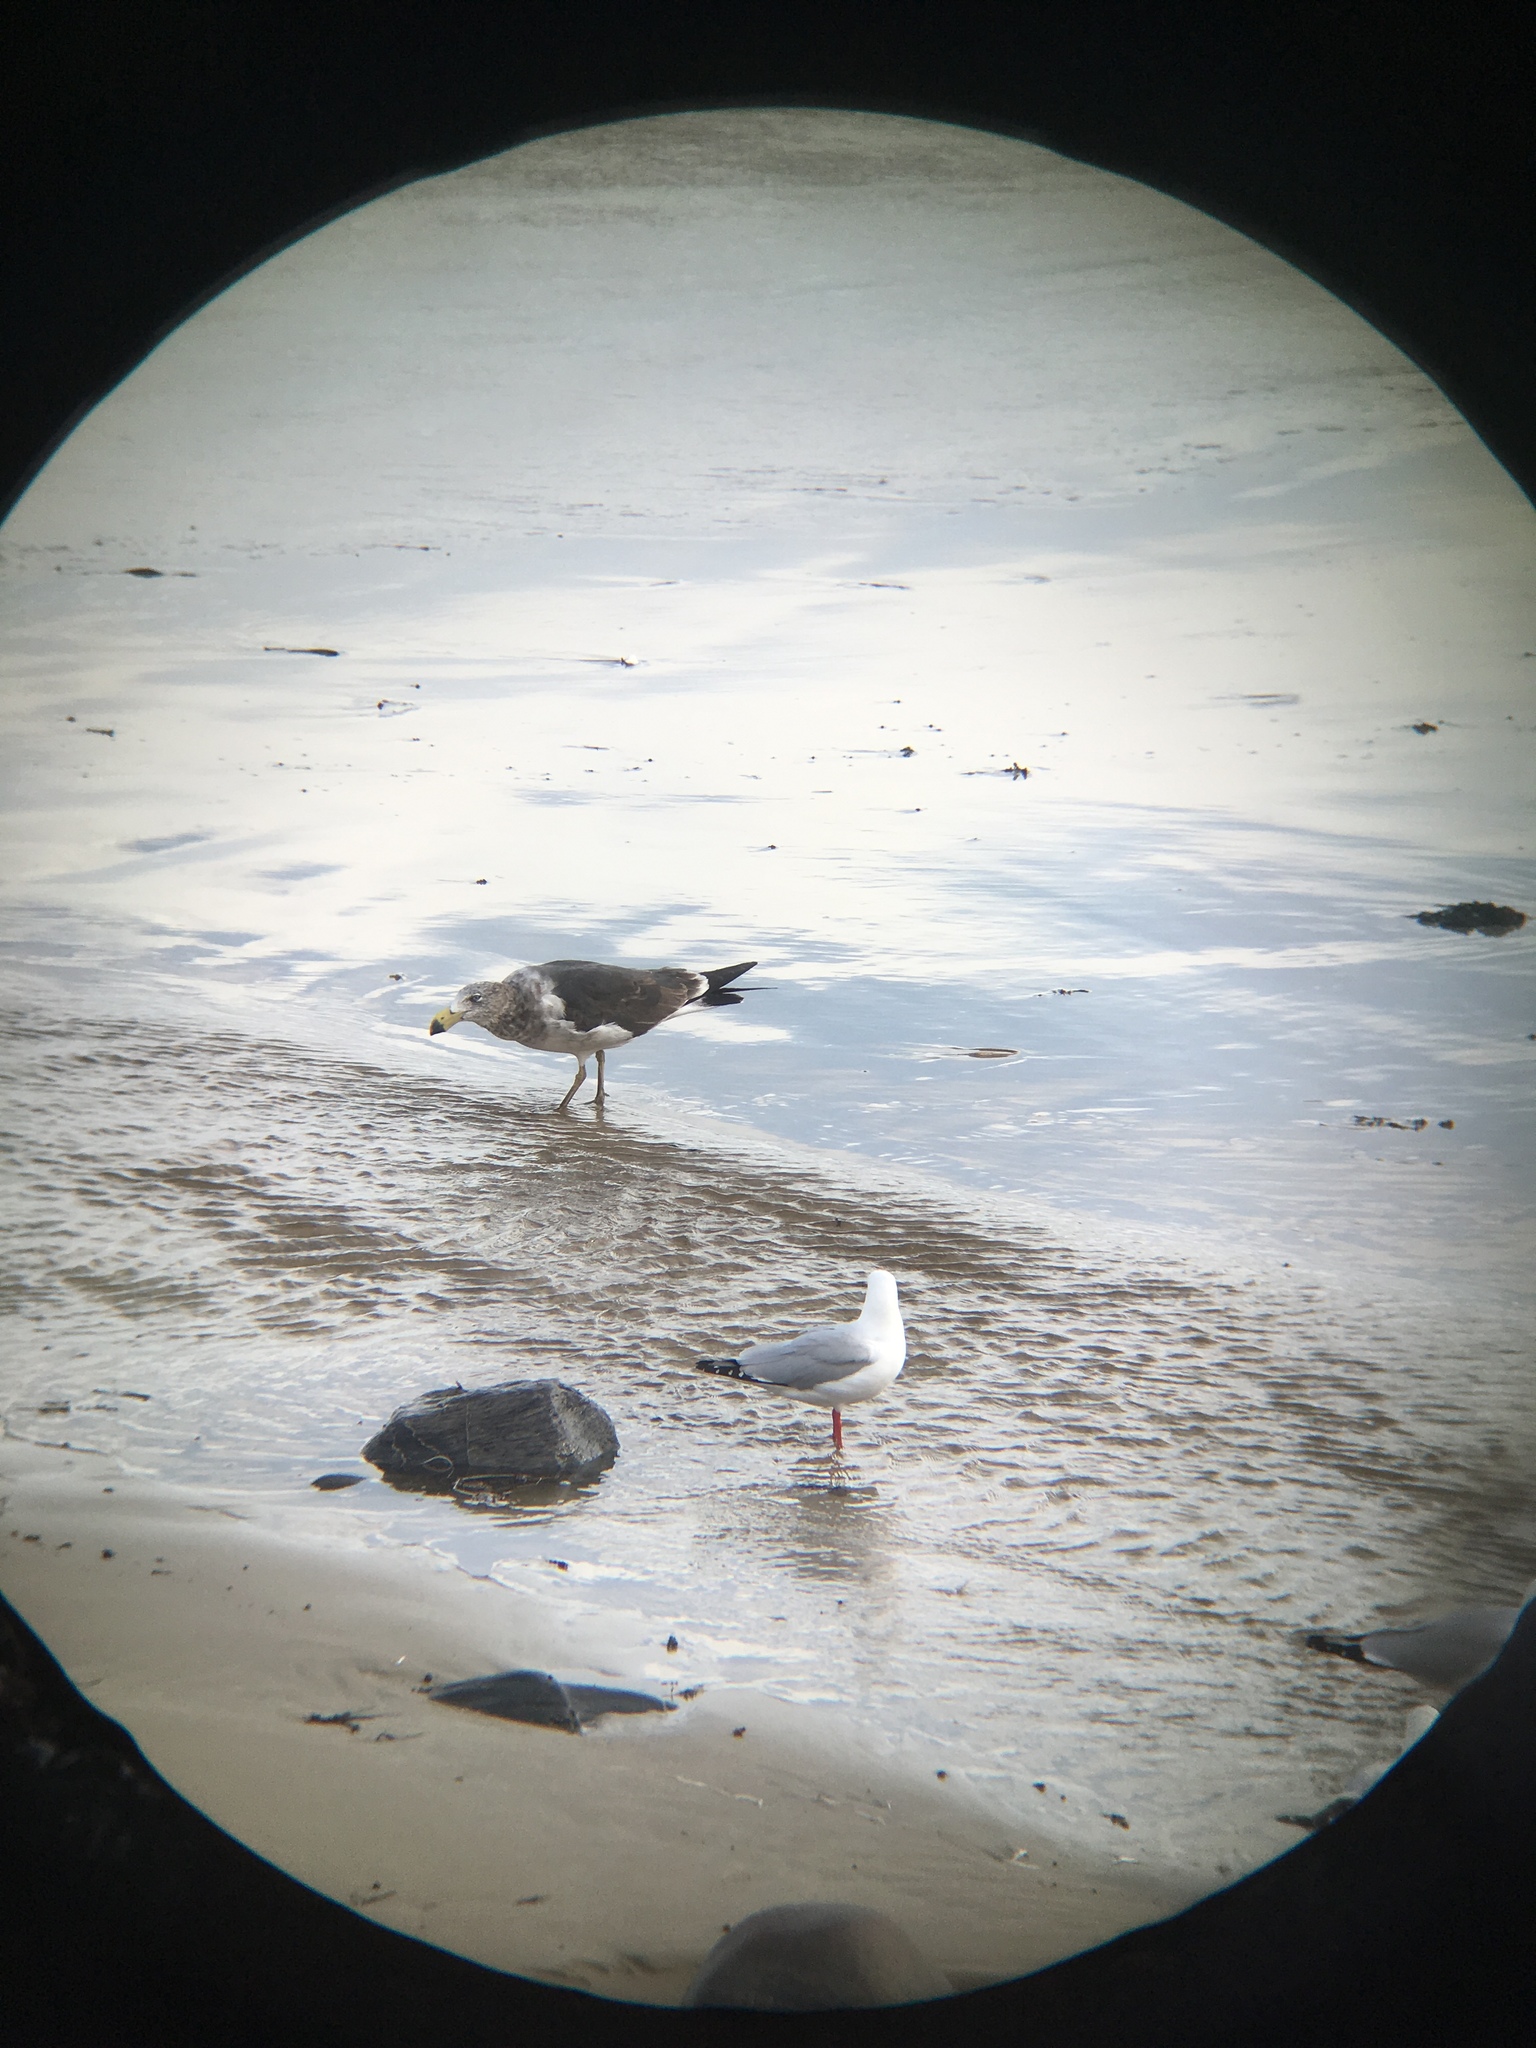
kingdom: Animalia
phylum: Chordata
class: Aves
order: Charadriiformes
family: Laridae
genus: Larus
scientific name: Larus pacificus
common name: Pacific gull
